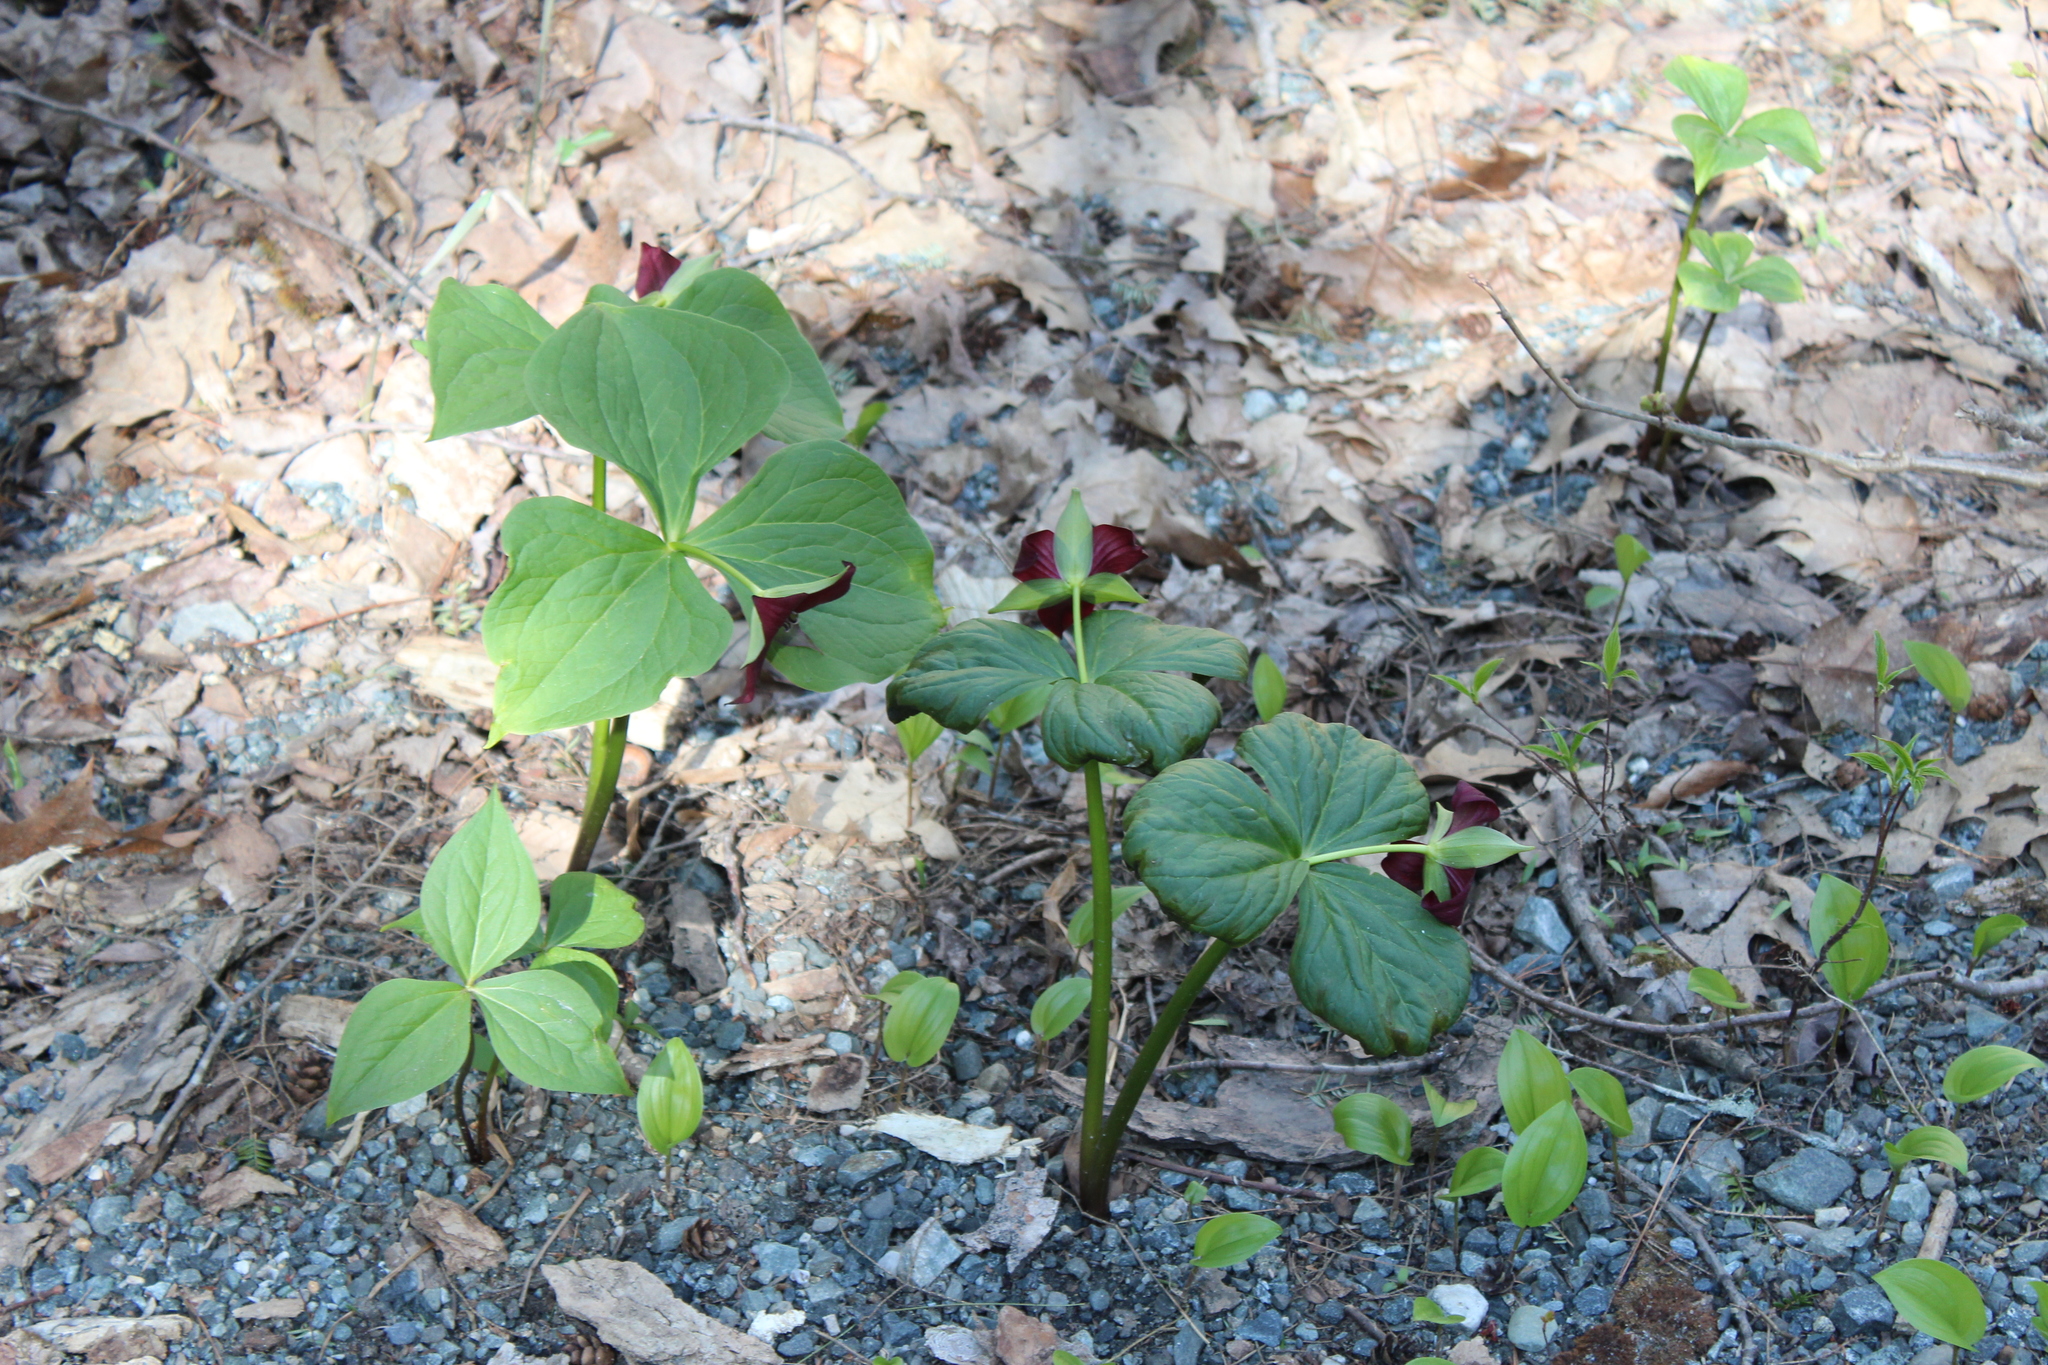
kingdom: Plantae
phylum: Tracheophyta
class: Liliopsida
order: Liliales
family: Melanthiaceae
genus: Trillium
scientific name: Trillium erectum
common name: Purple trillium
